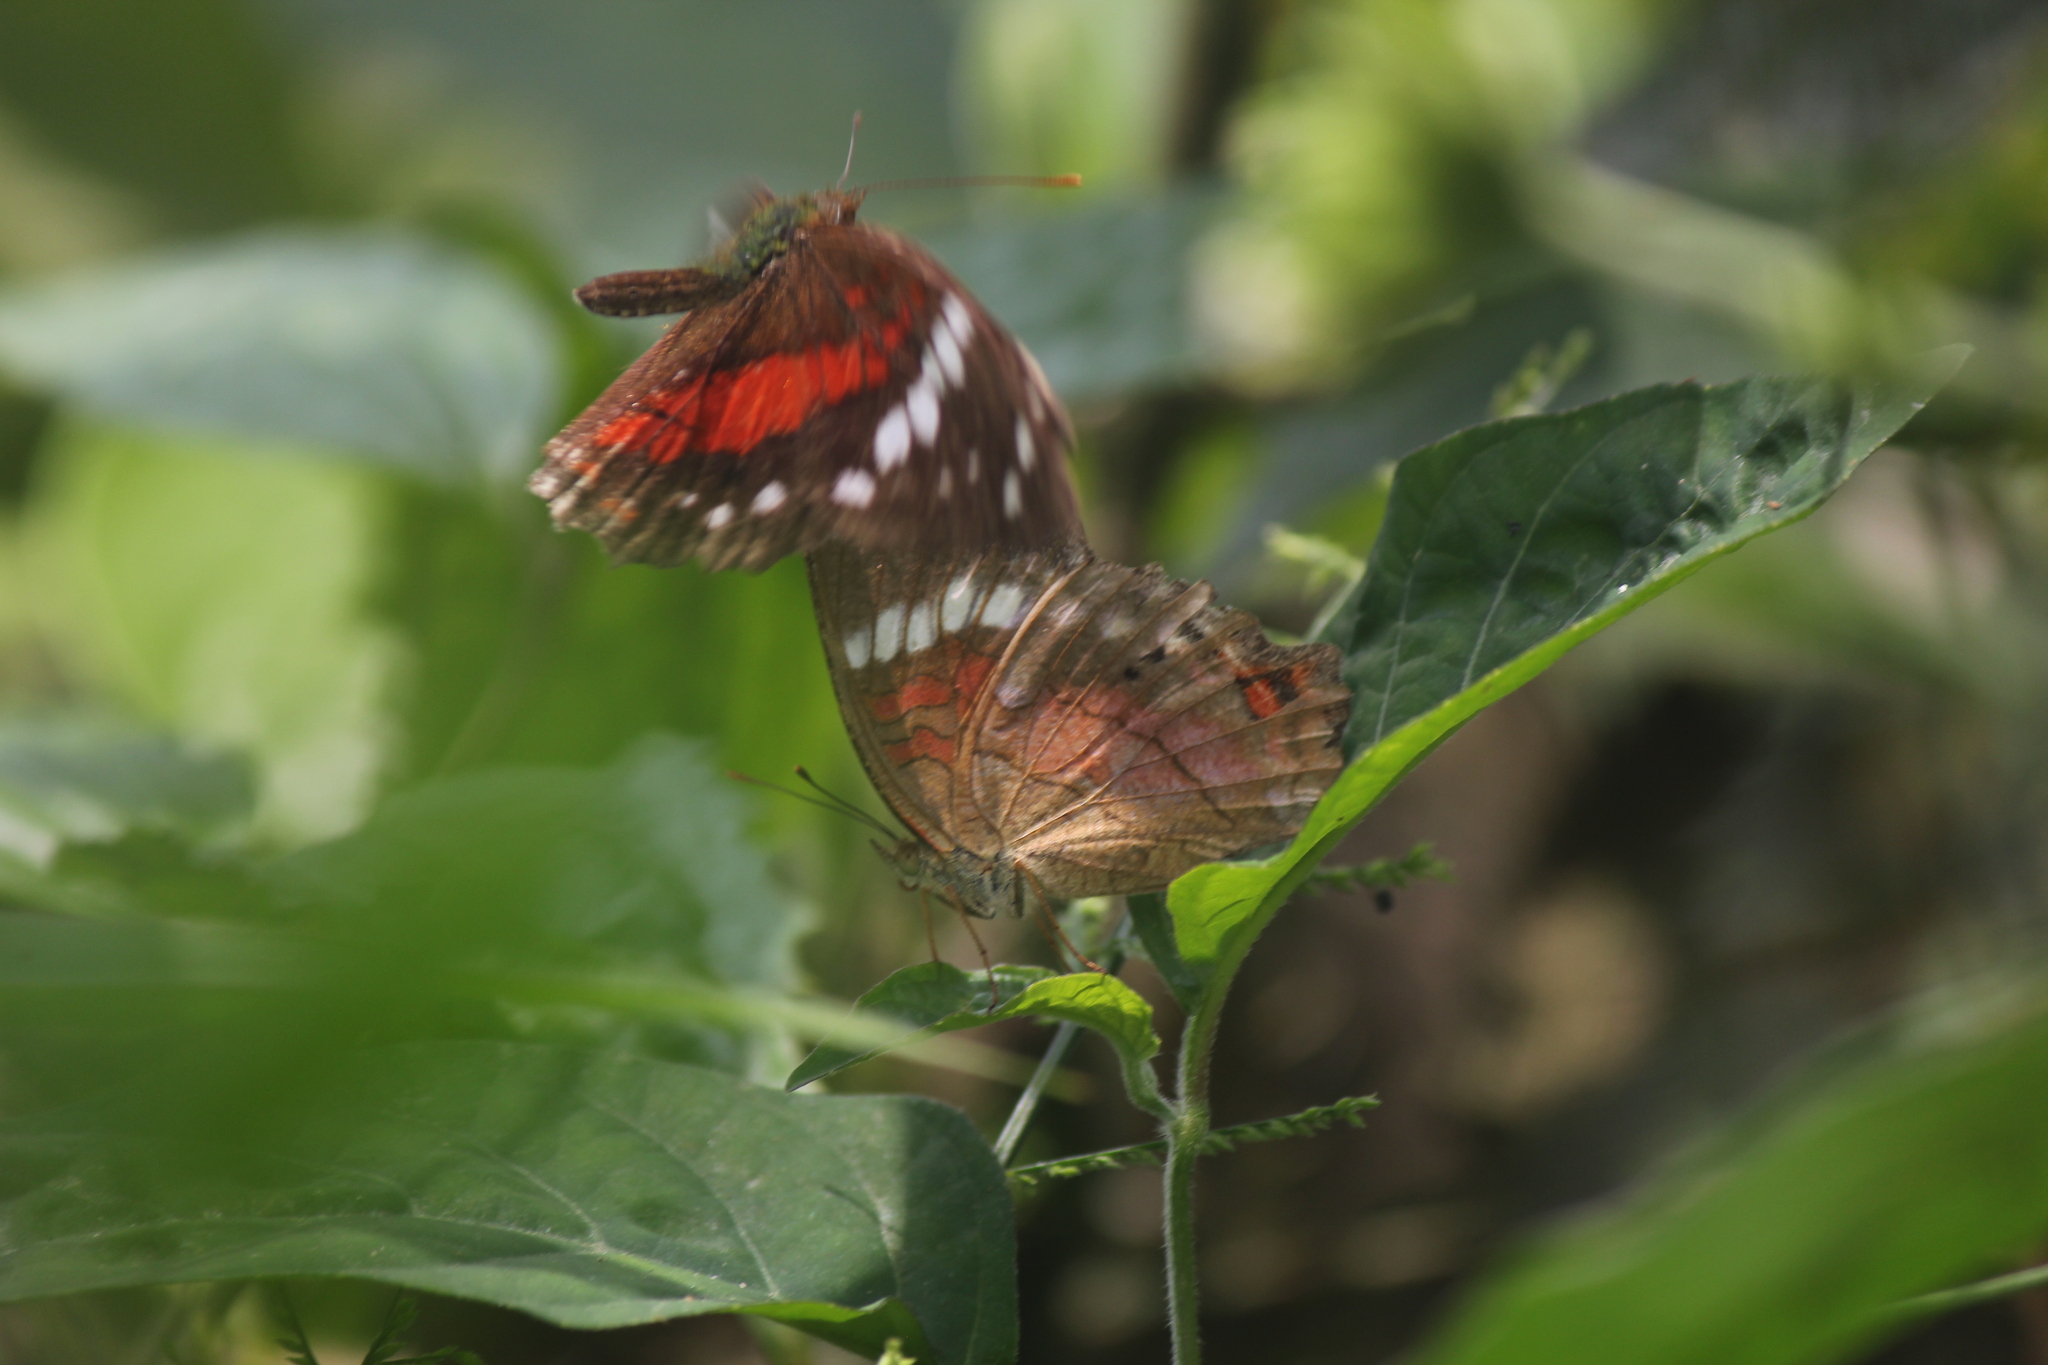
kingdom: Animalia
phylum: Arthropoda
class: Insecta
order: Lepidoptera
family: Nymphalidae
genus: Anartia
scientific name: Anartia amathea
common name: Red peacock
